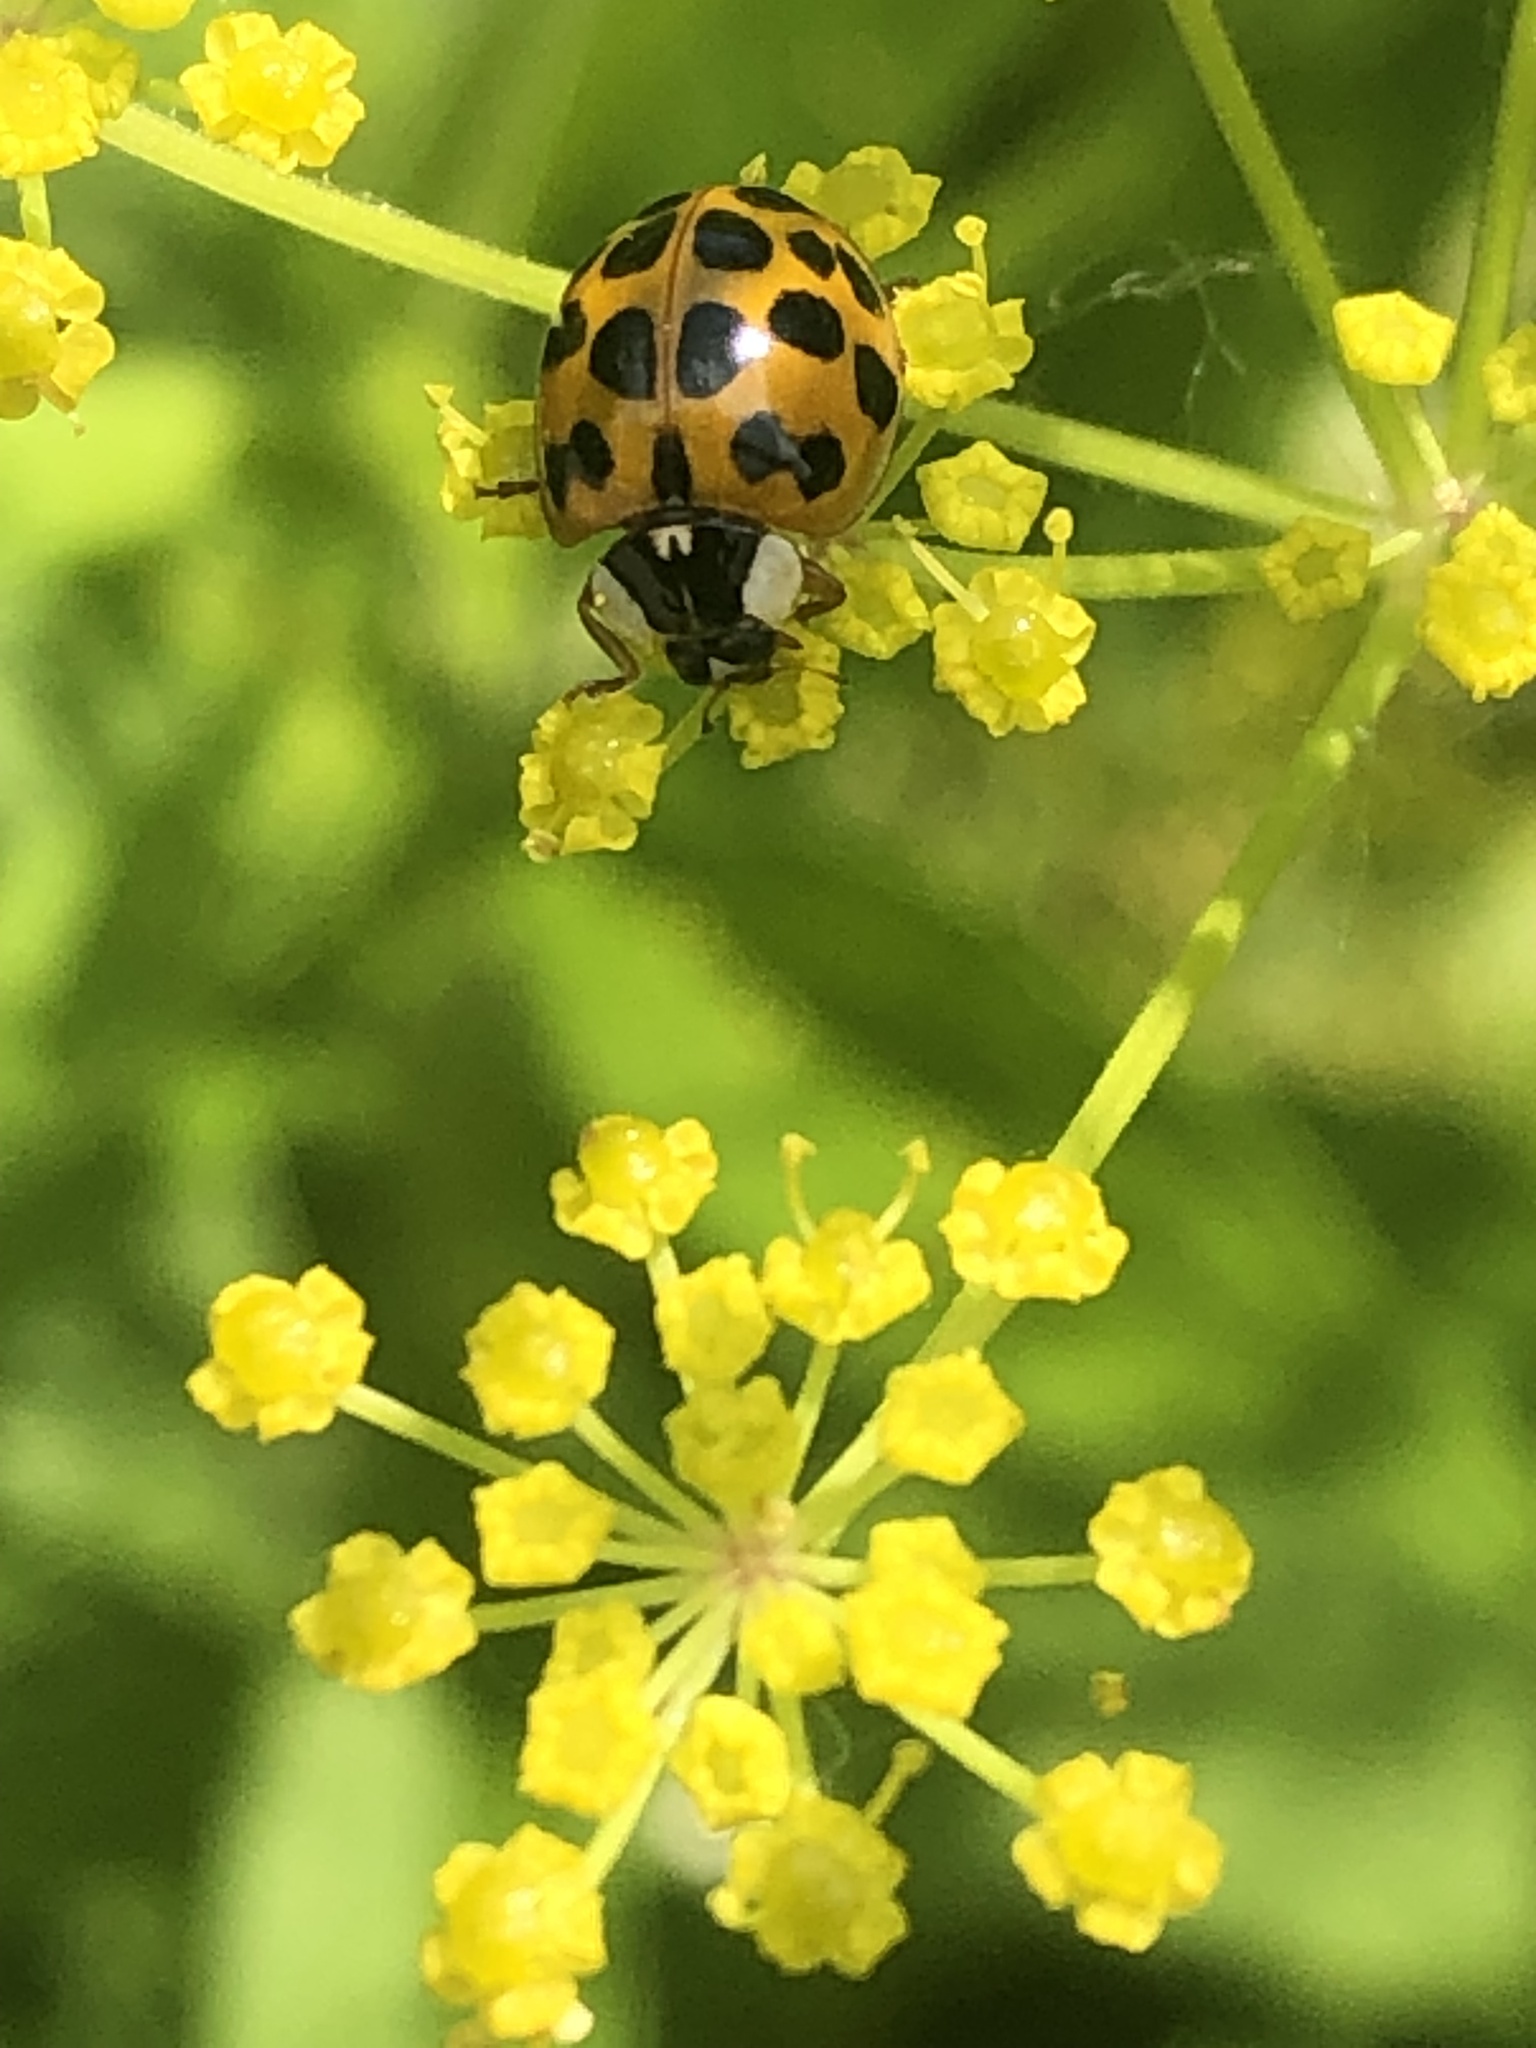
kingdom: Animalia
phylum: Arthropoda
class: Insecta
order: Coleoptera
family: Coccinellidae
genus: Harmonia
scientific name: Harmonia axyridis
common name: Harlequin ladybird
